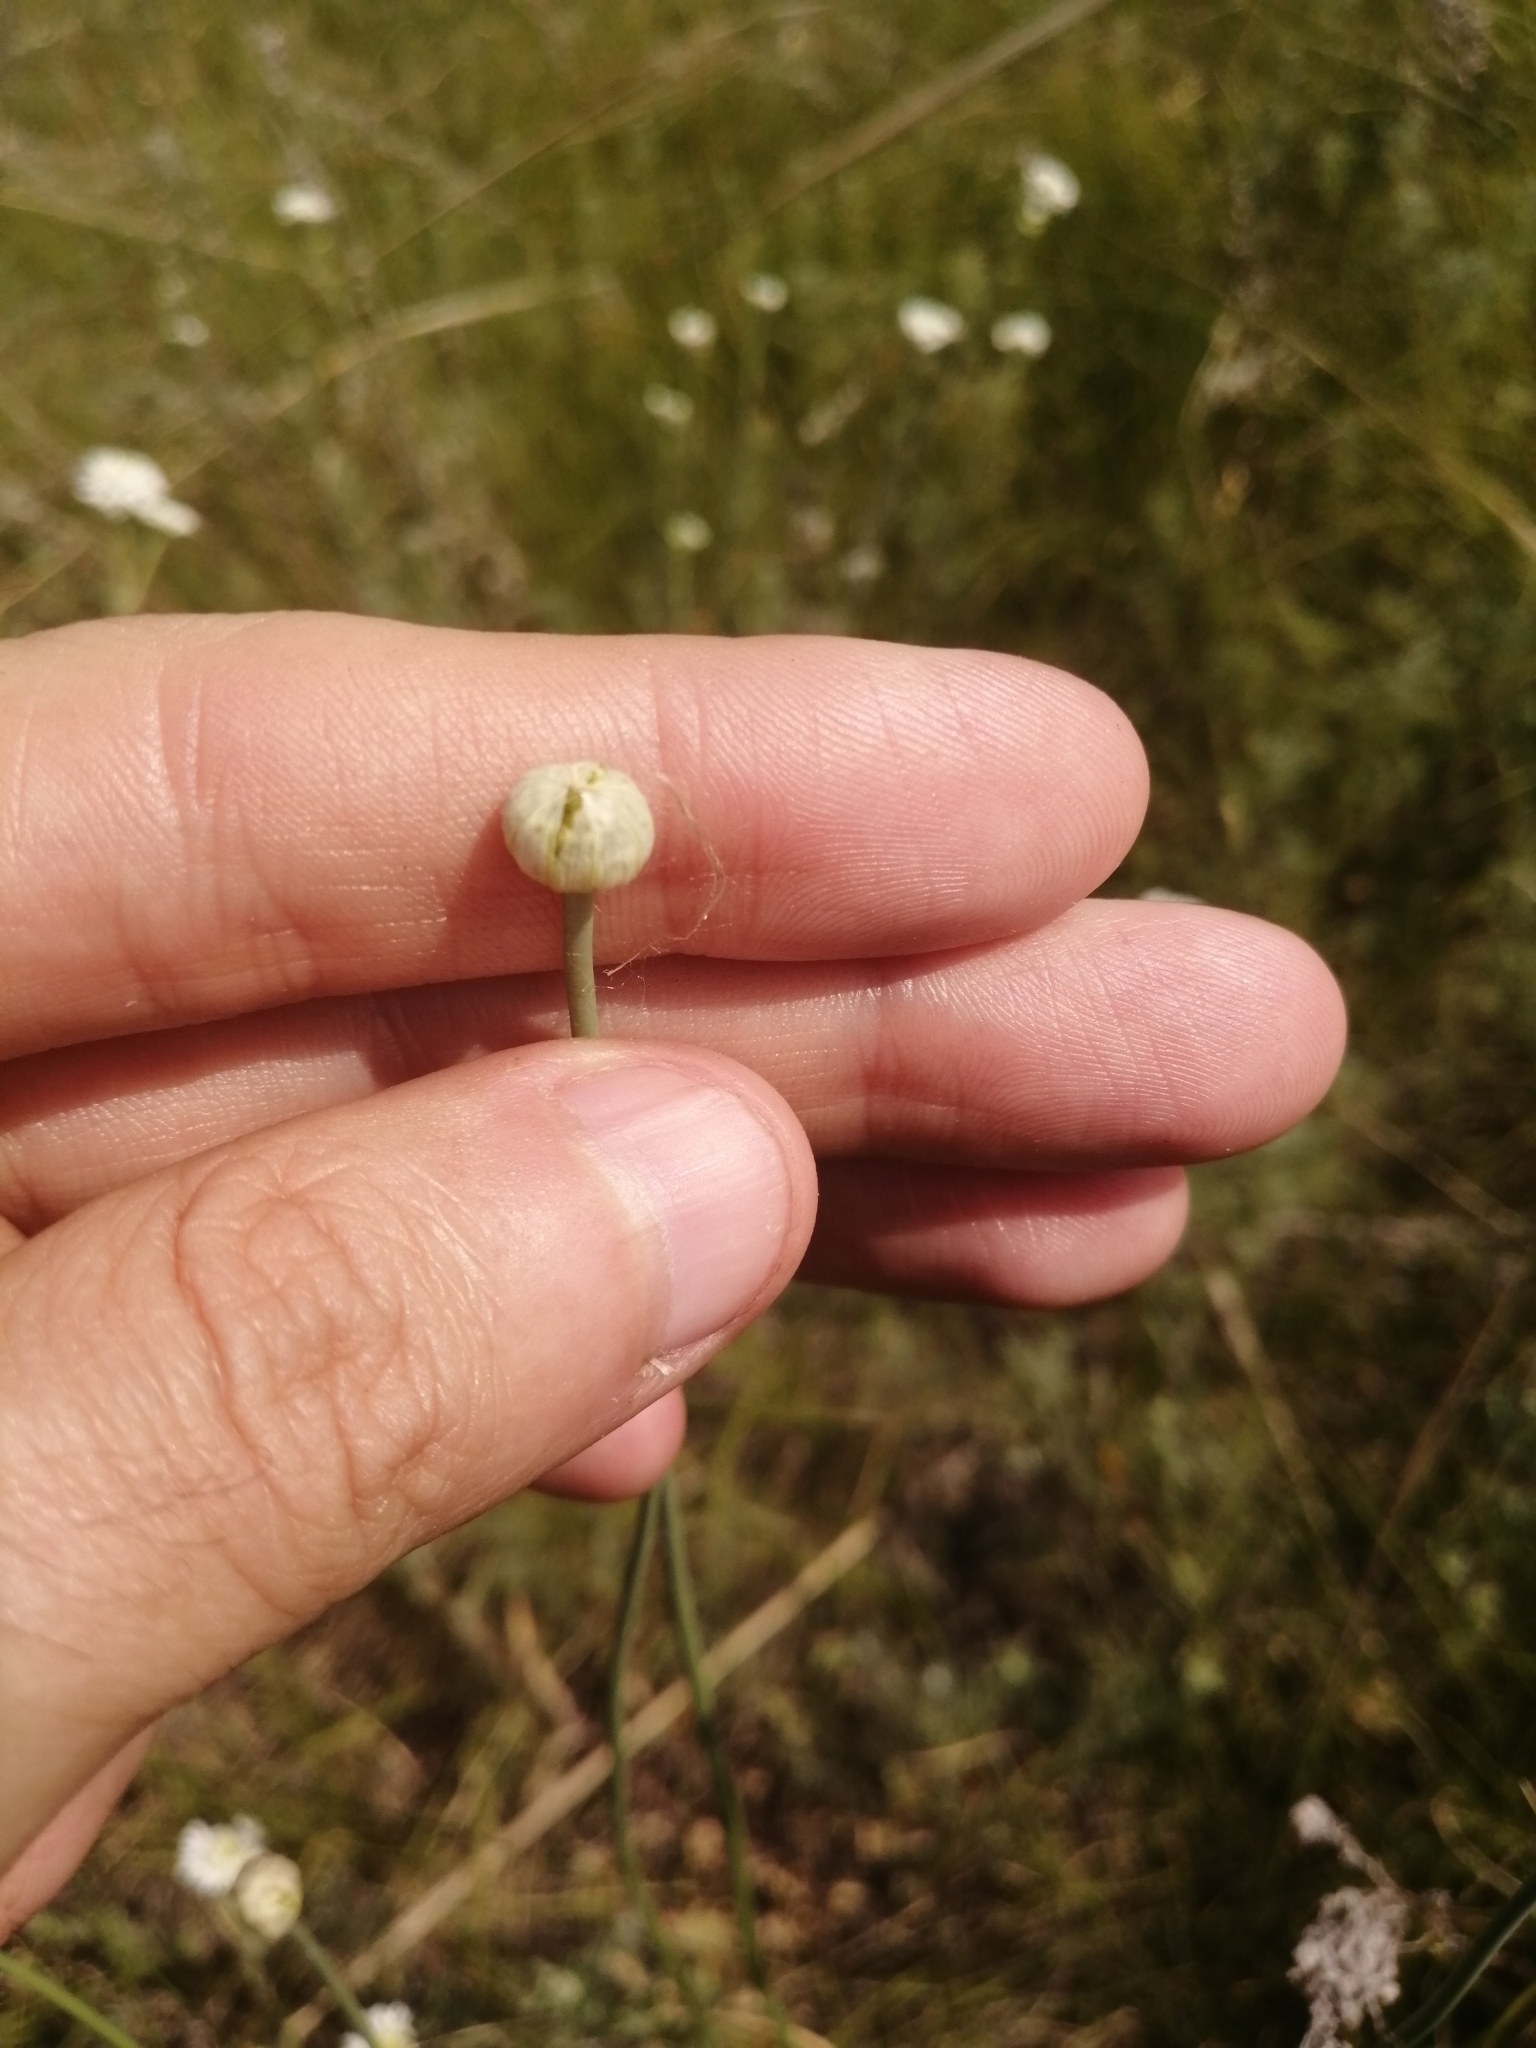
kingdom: Plantae
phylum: Tracheophyta
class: Liliopsida
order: Asparagales
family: Amaryllidaceae
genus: Allium
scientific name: Allium flavescens
